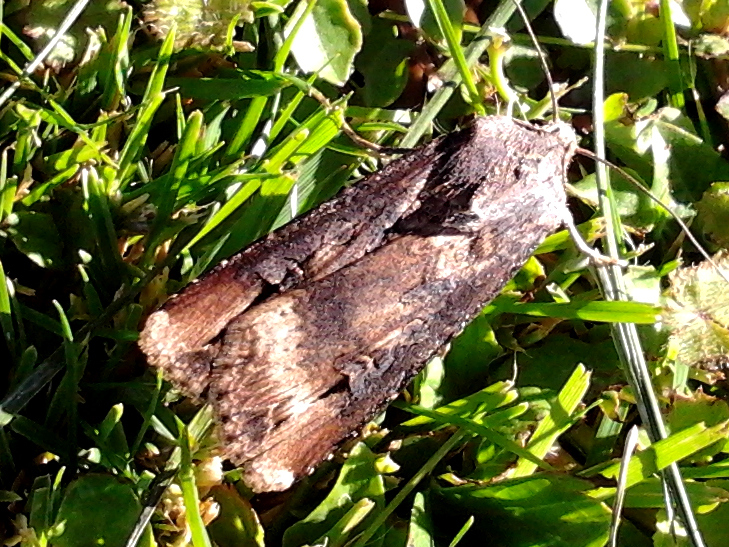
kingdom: Animalia
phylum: Arthropoda
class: Insecta
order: Lepidoptera
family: Noctuidae
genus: Agrotis
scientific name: Agrotis ipsilon
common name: Dark sword-grass
